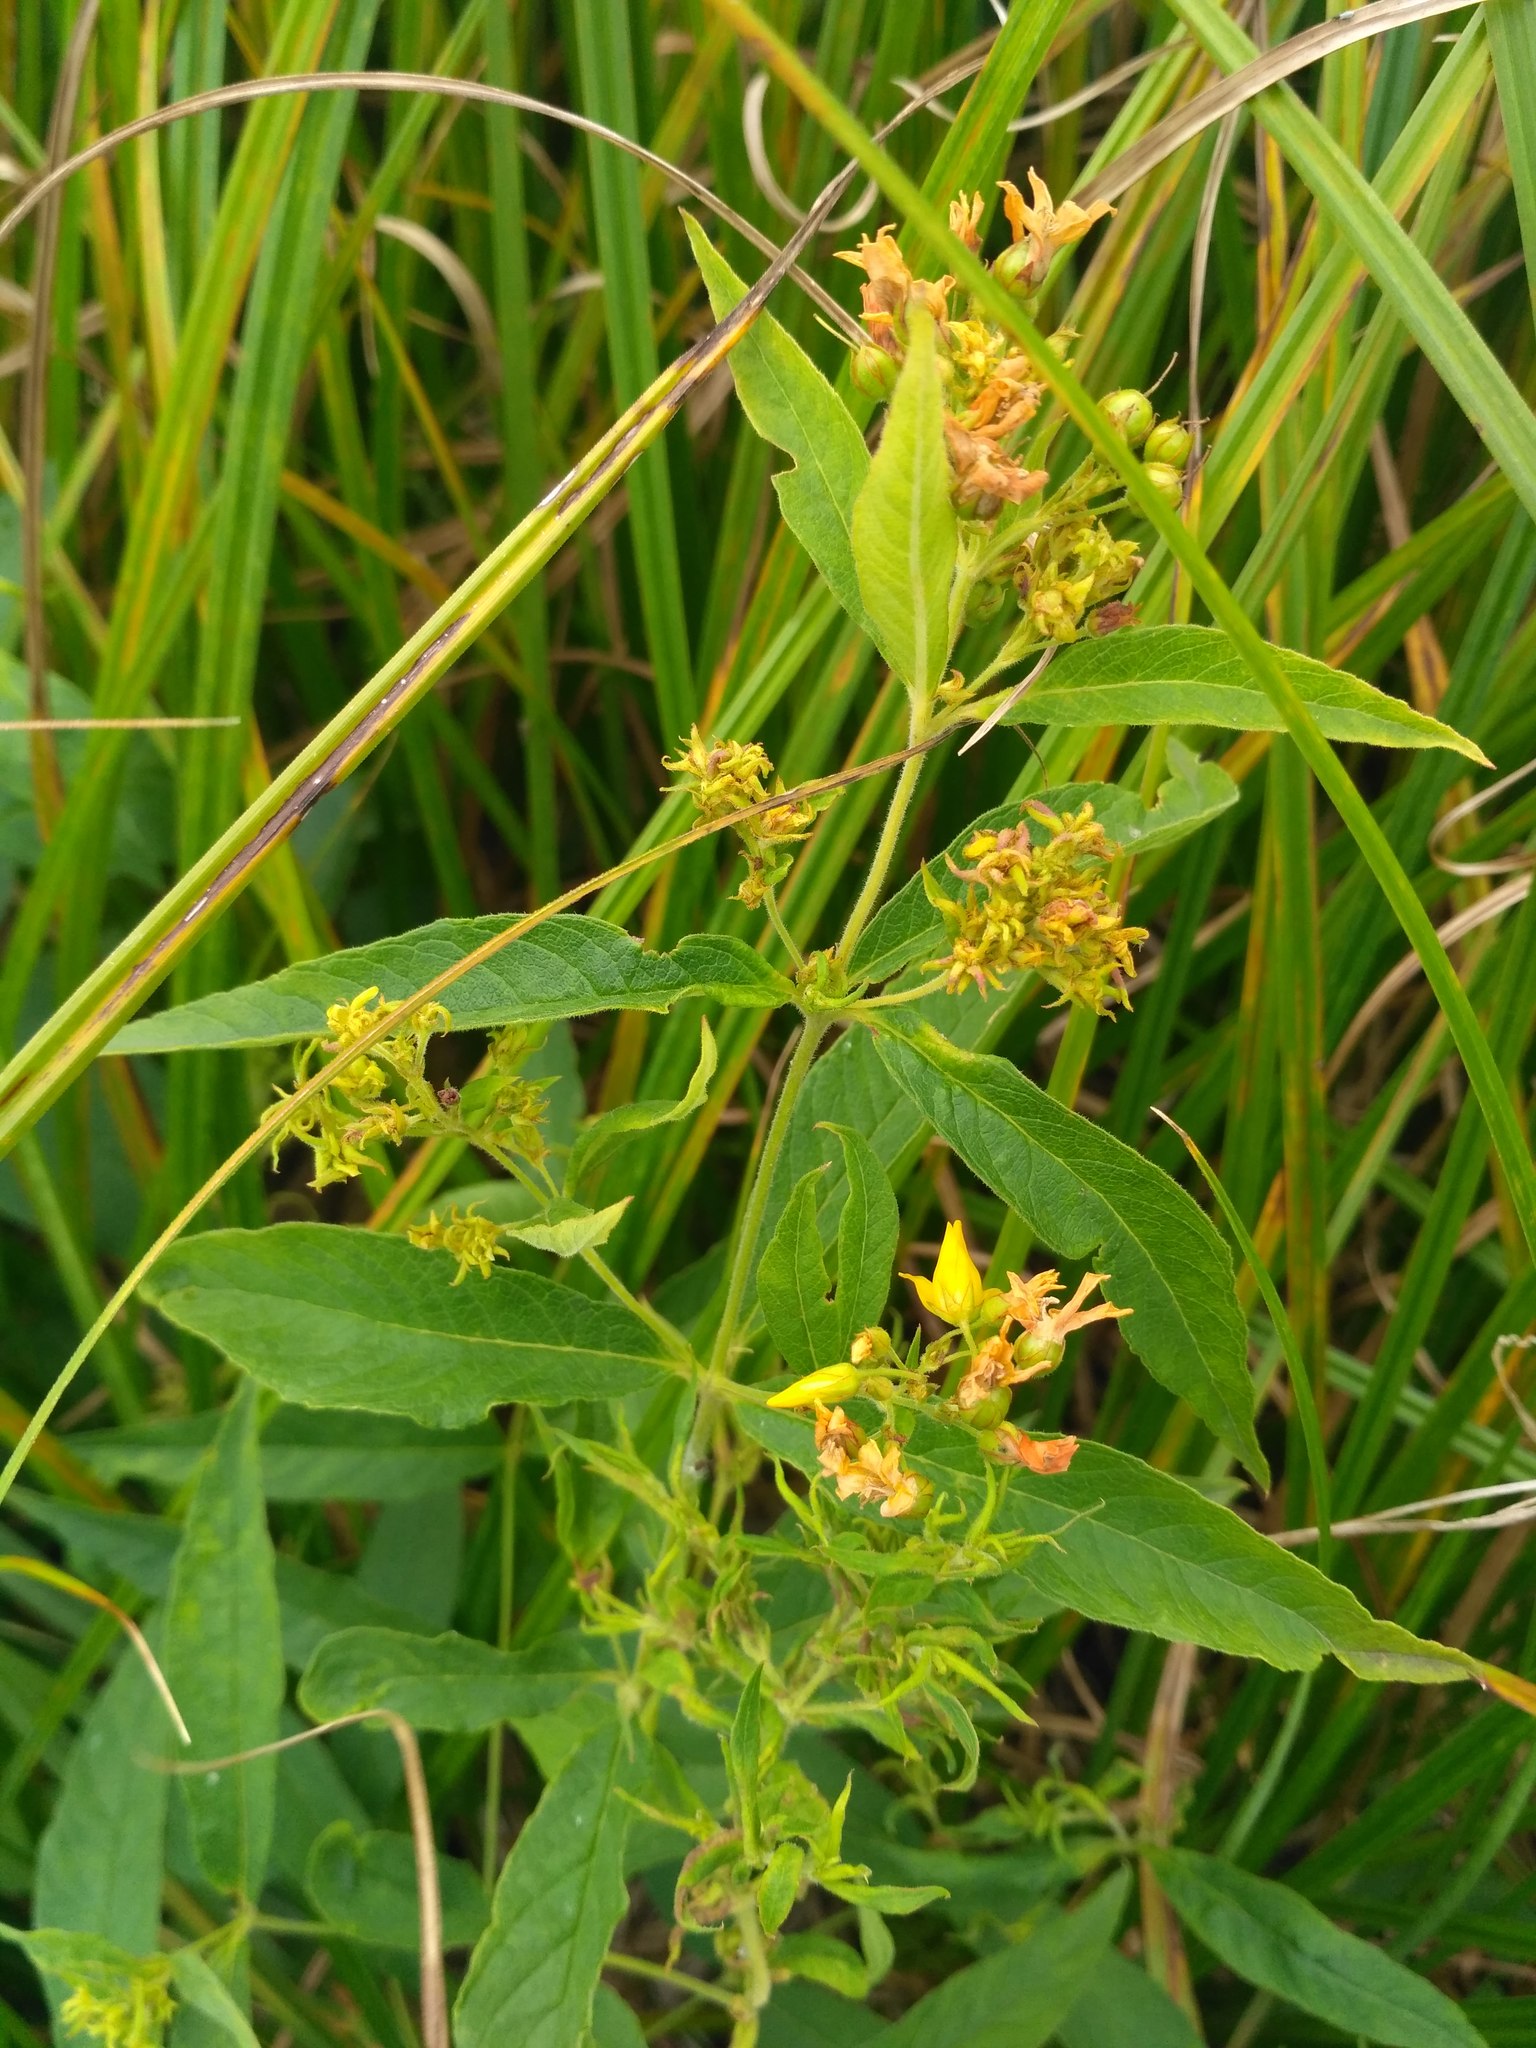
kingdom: Plantae
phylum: Tracheophyta
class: Magnoliopsida
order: Ericales
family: Primulaceae
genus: Lysimachia
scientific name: Lysimachia vulgaris
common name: Yellow loosestrife
